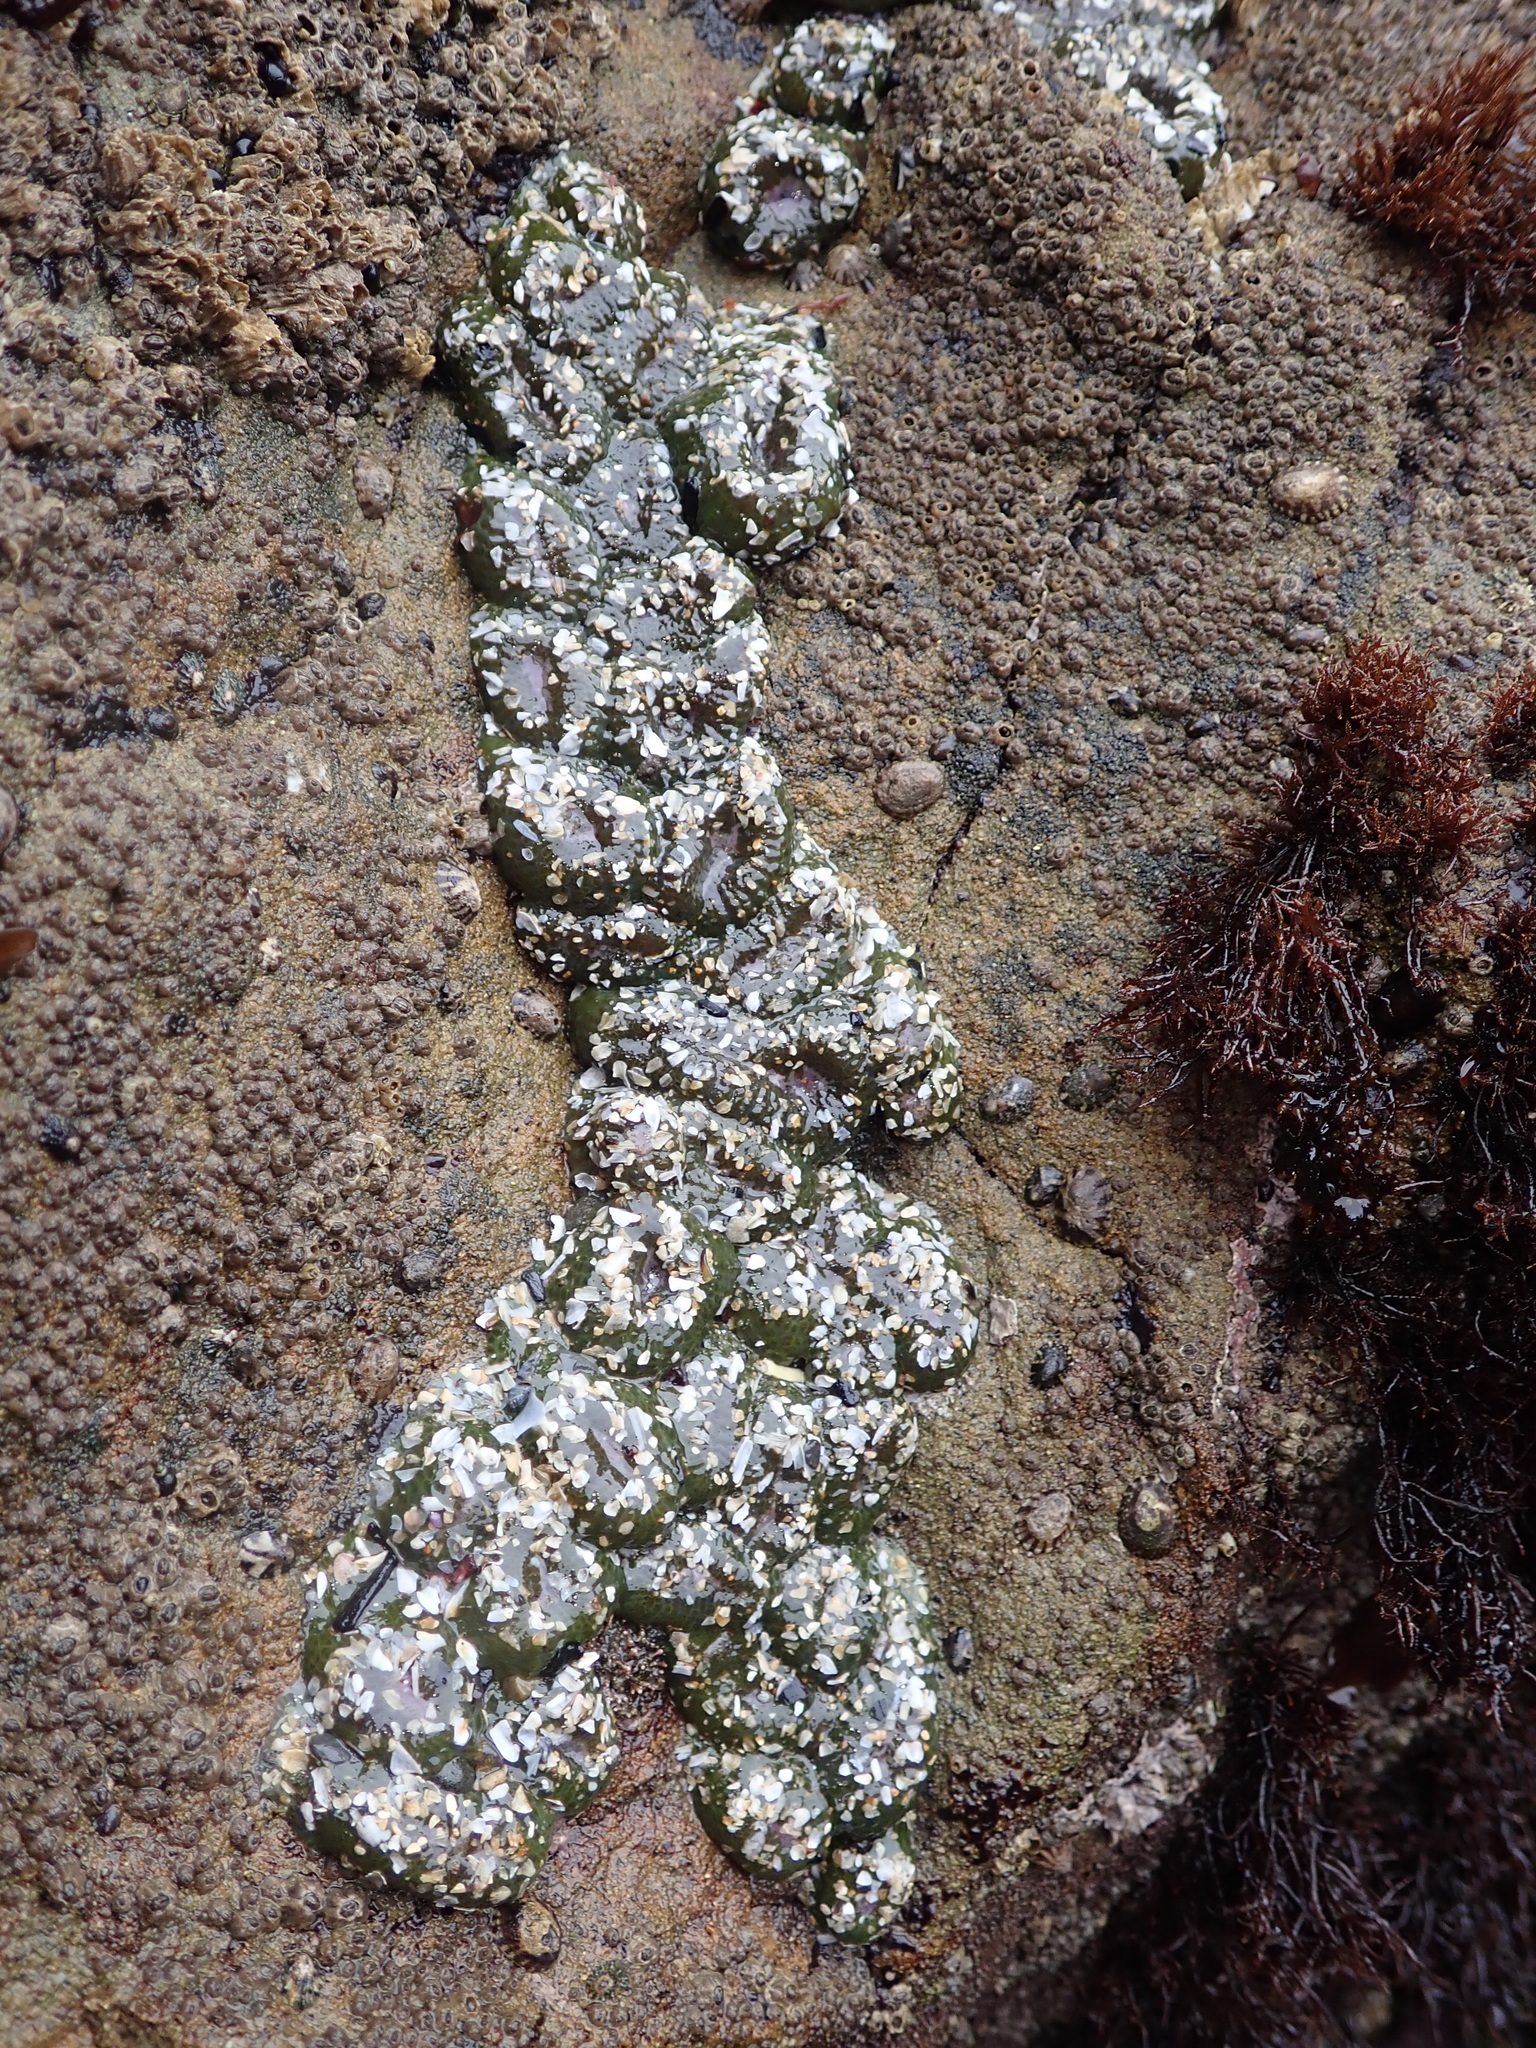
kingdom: Animalia
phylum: Cnidaria
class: Anthozoa
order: Actiniaria
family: Actiniidae
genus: Anthopleura
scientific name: Anthopleura elegantissima
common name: Clonal anemone
